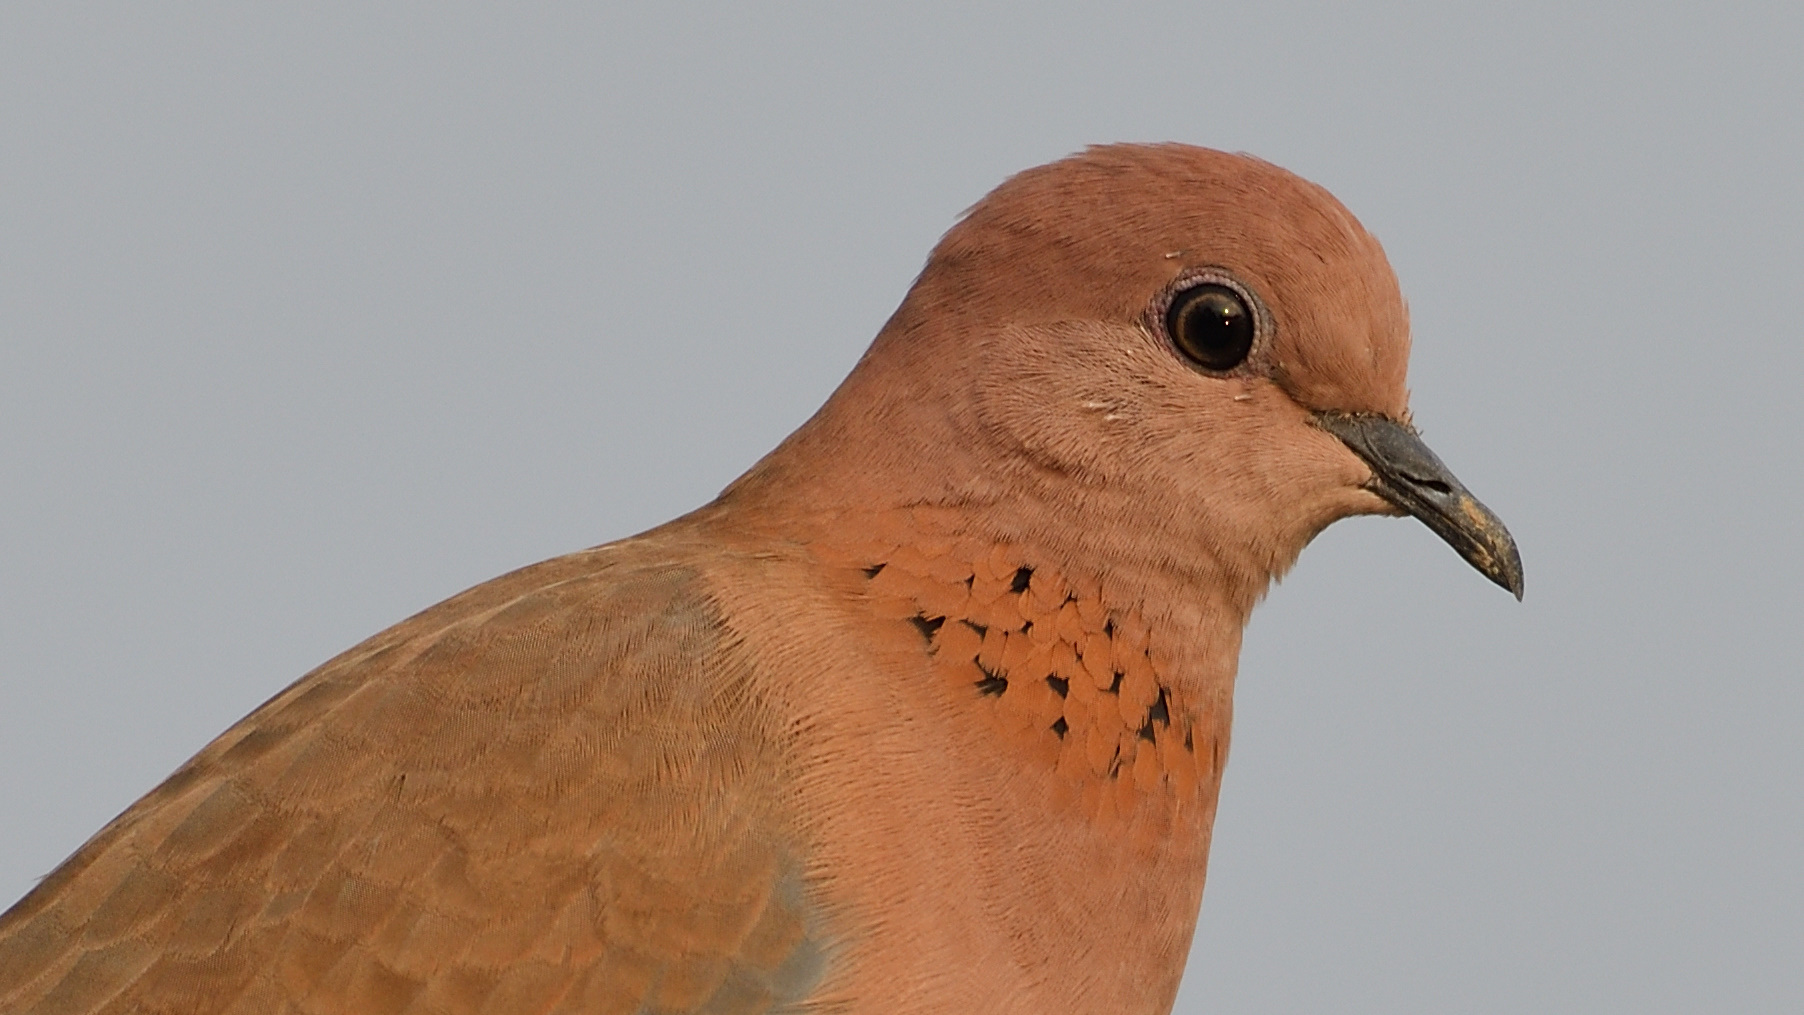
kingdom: Animalia
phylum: Chordata
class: Aves
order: Columbiformes
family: Columbidae
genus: Spilopelia
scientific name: Spilopelia senegalensis
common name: Laughing dove
